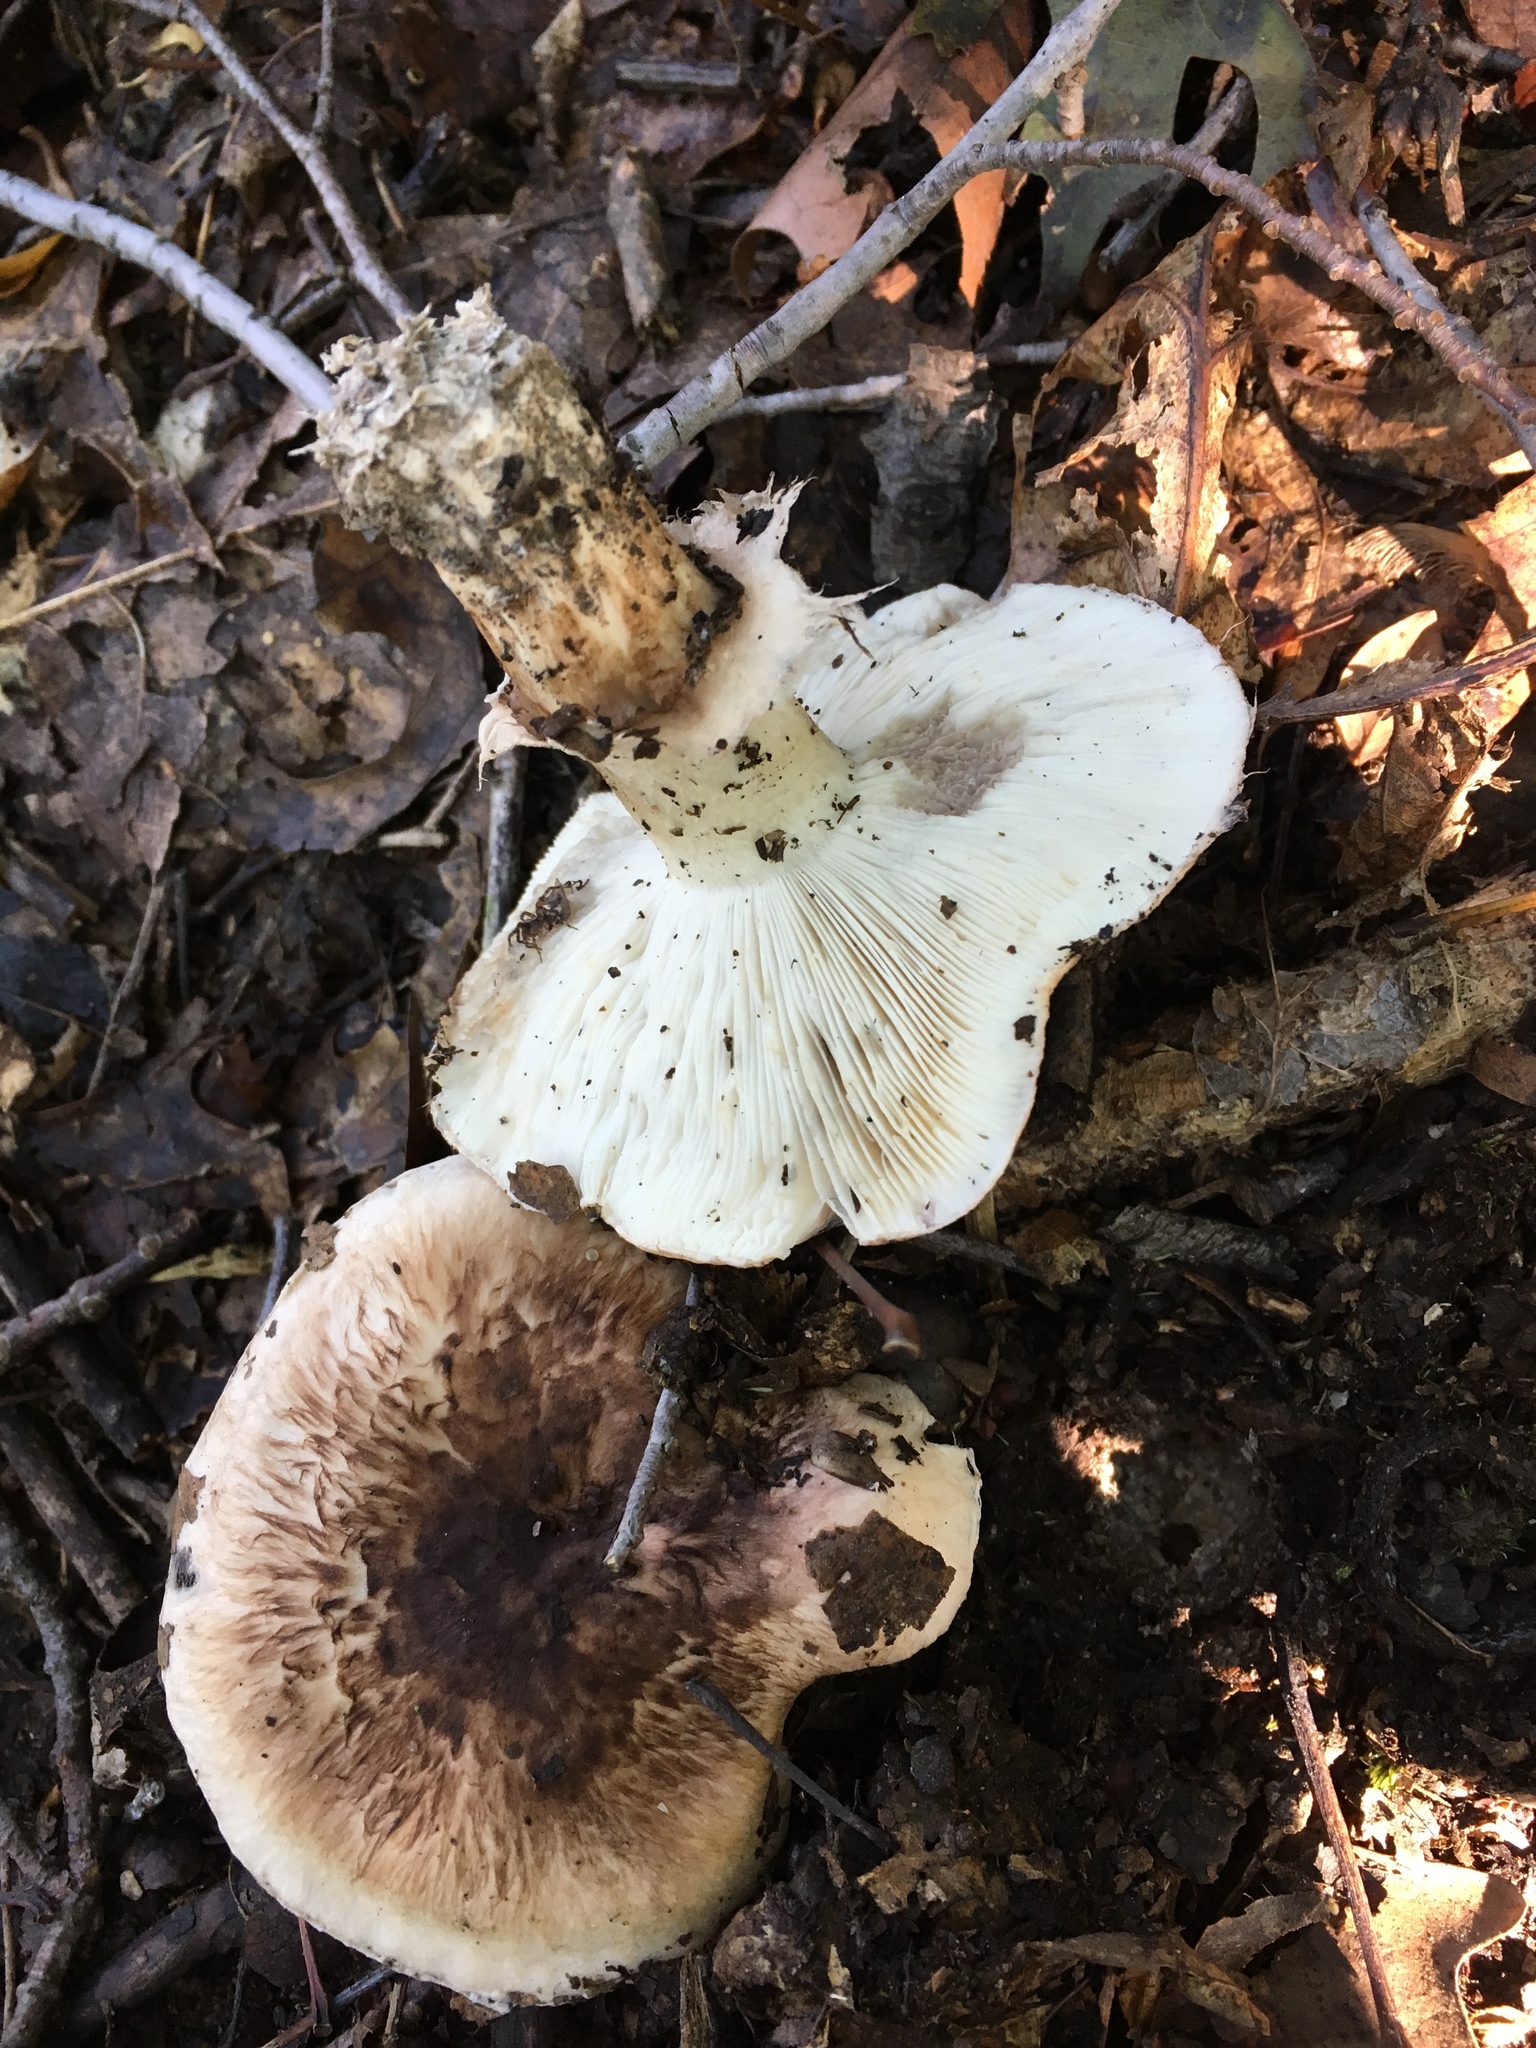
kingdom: Fungi
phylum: Basidiomycota
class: Agaricomycetes
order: Agaricales
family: Tricholomataceae
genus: Tricholoma
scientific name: Tricholoma caligatum
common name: True booted knight
